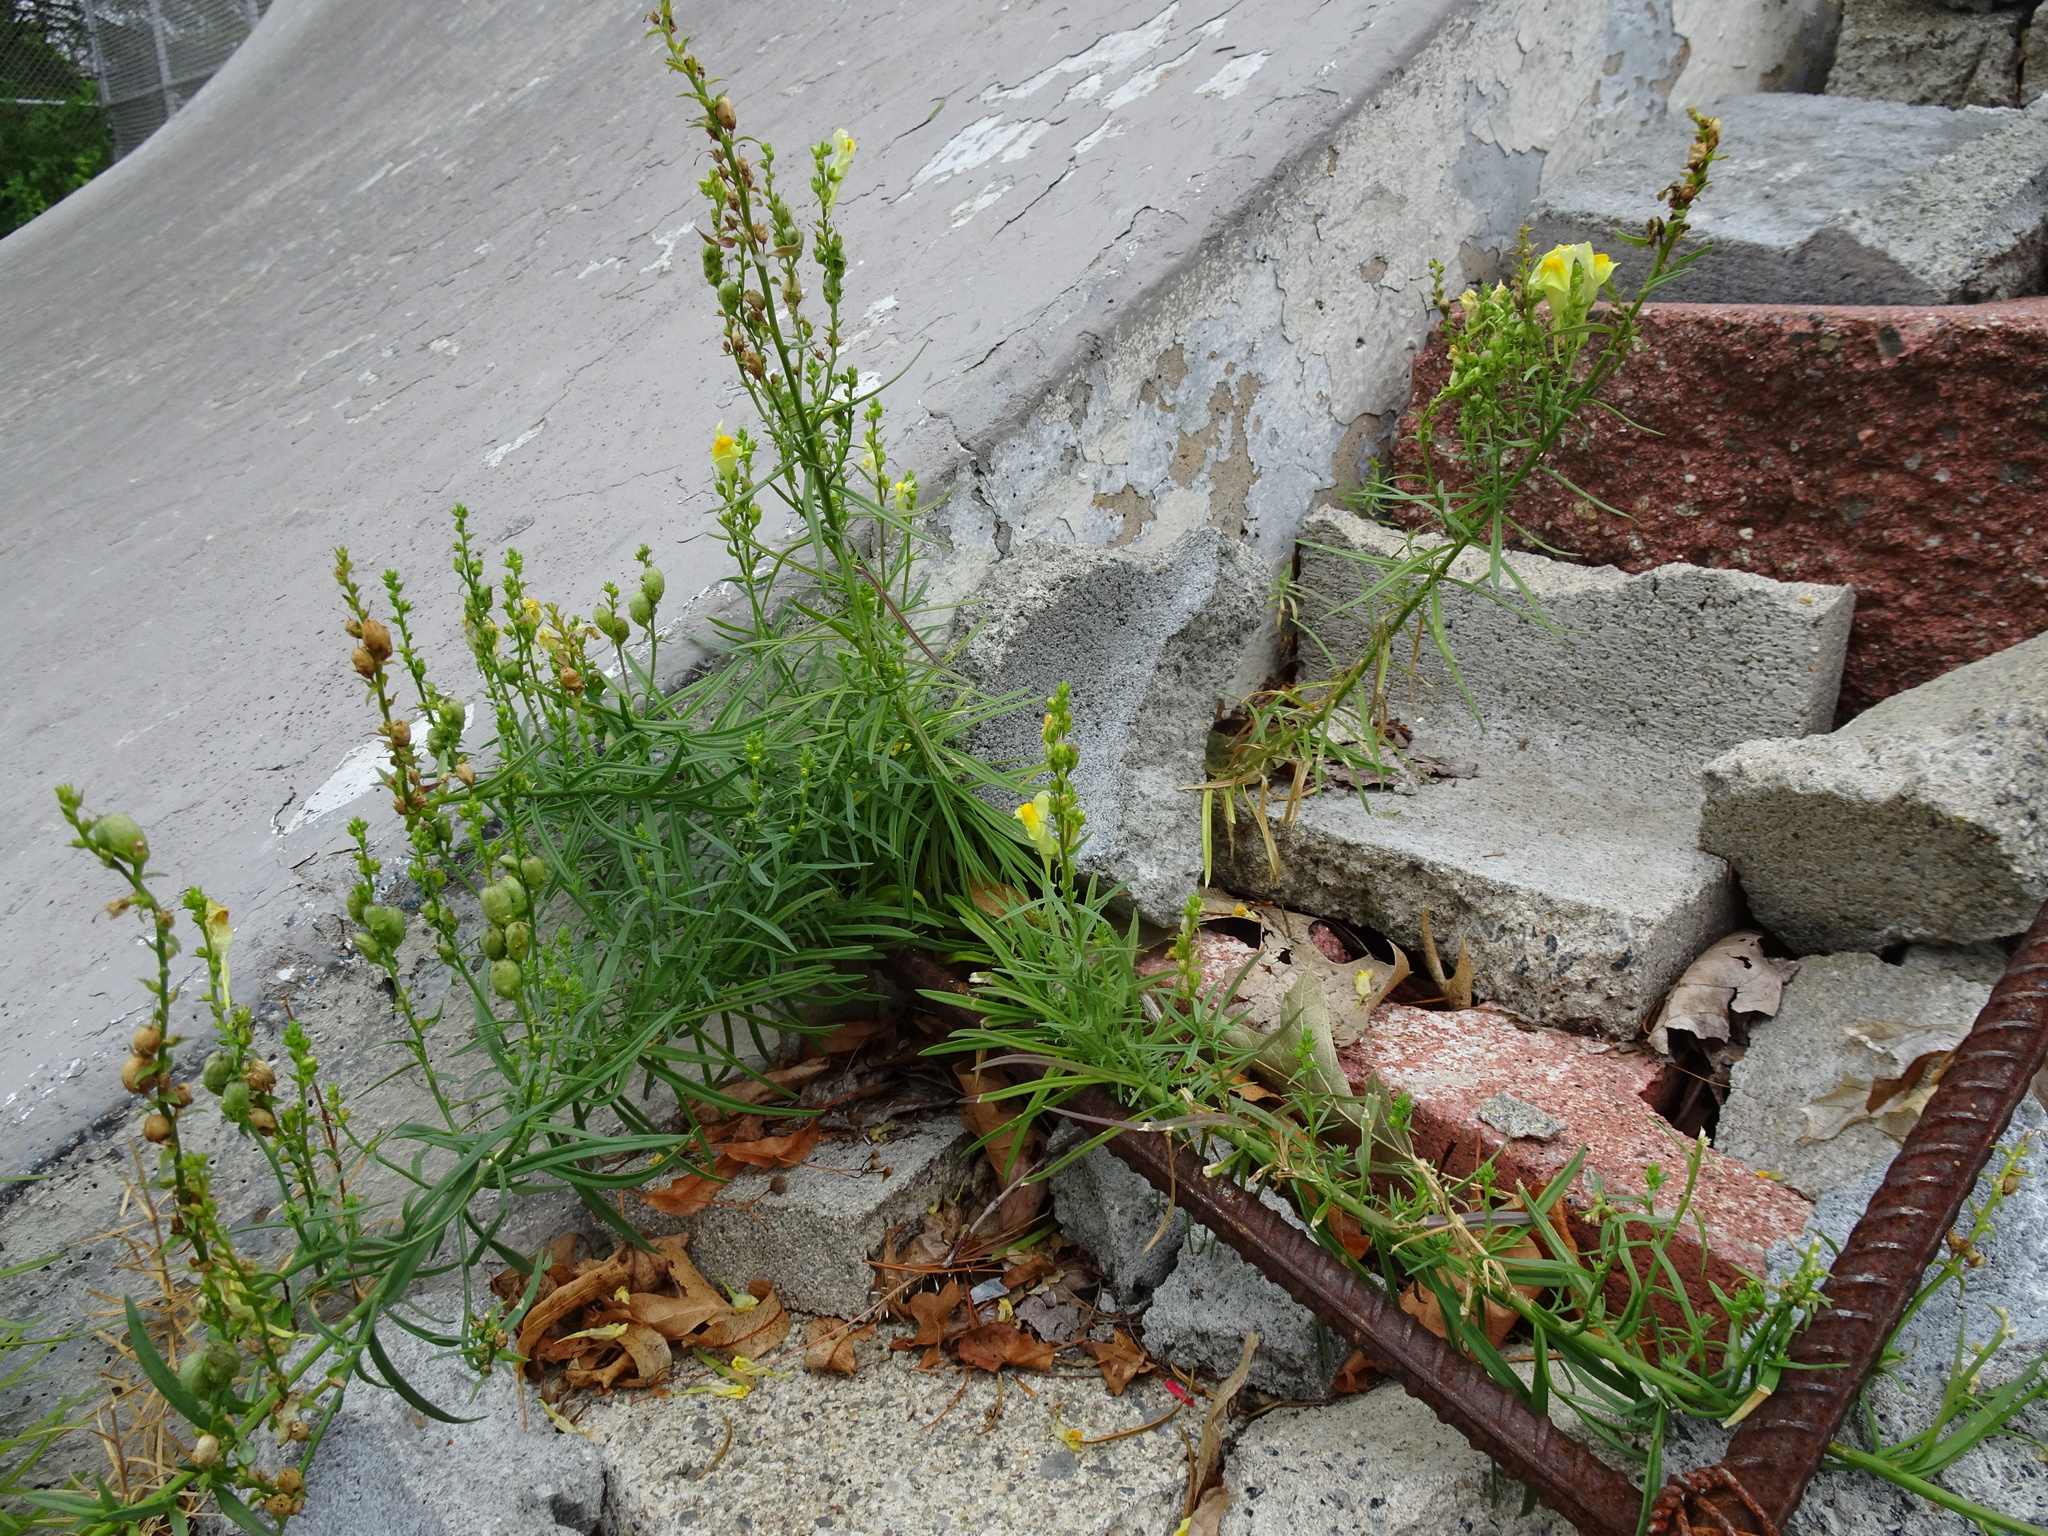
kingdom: Plantae
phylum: Tracheophyta
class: Magnoliopsida
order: Lamiales
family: Plantaginaceae
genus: Linaria
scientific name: Linaria vulgaris
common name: Butter and eggs
